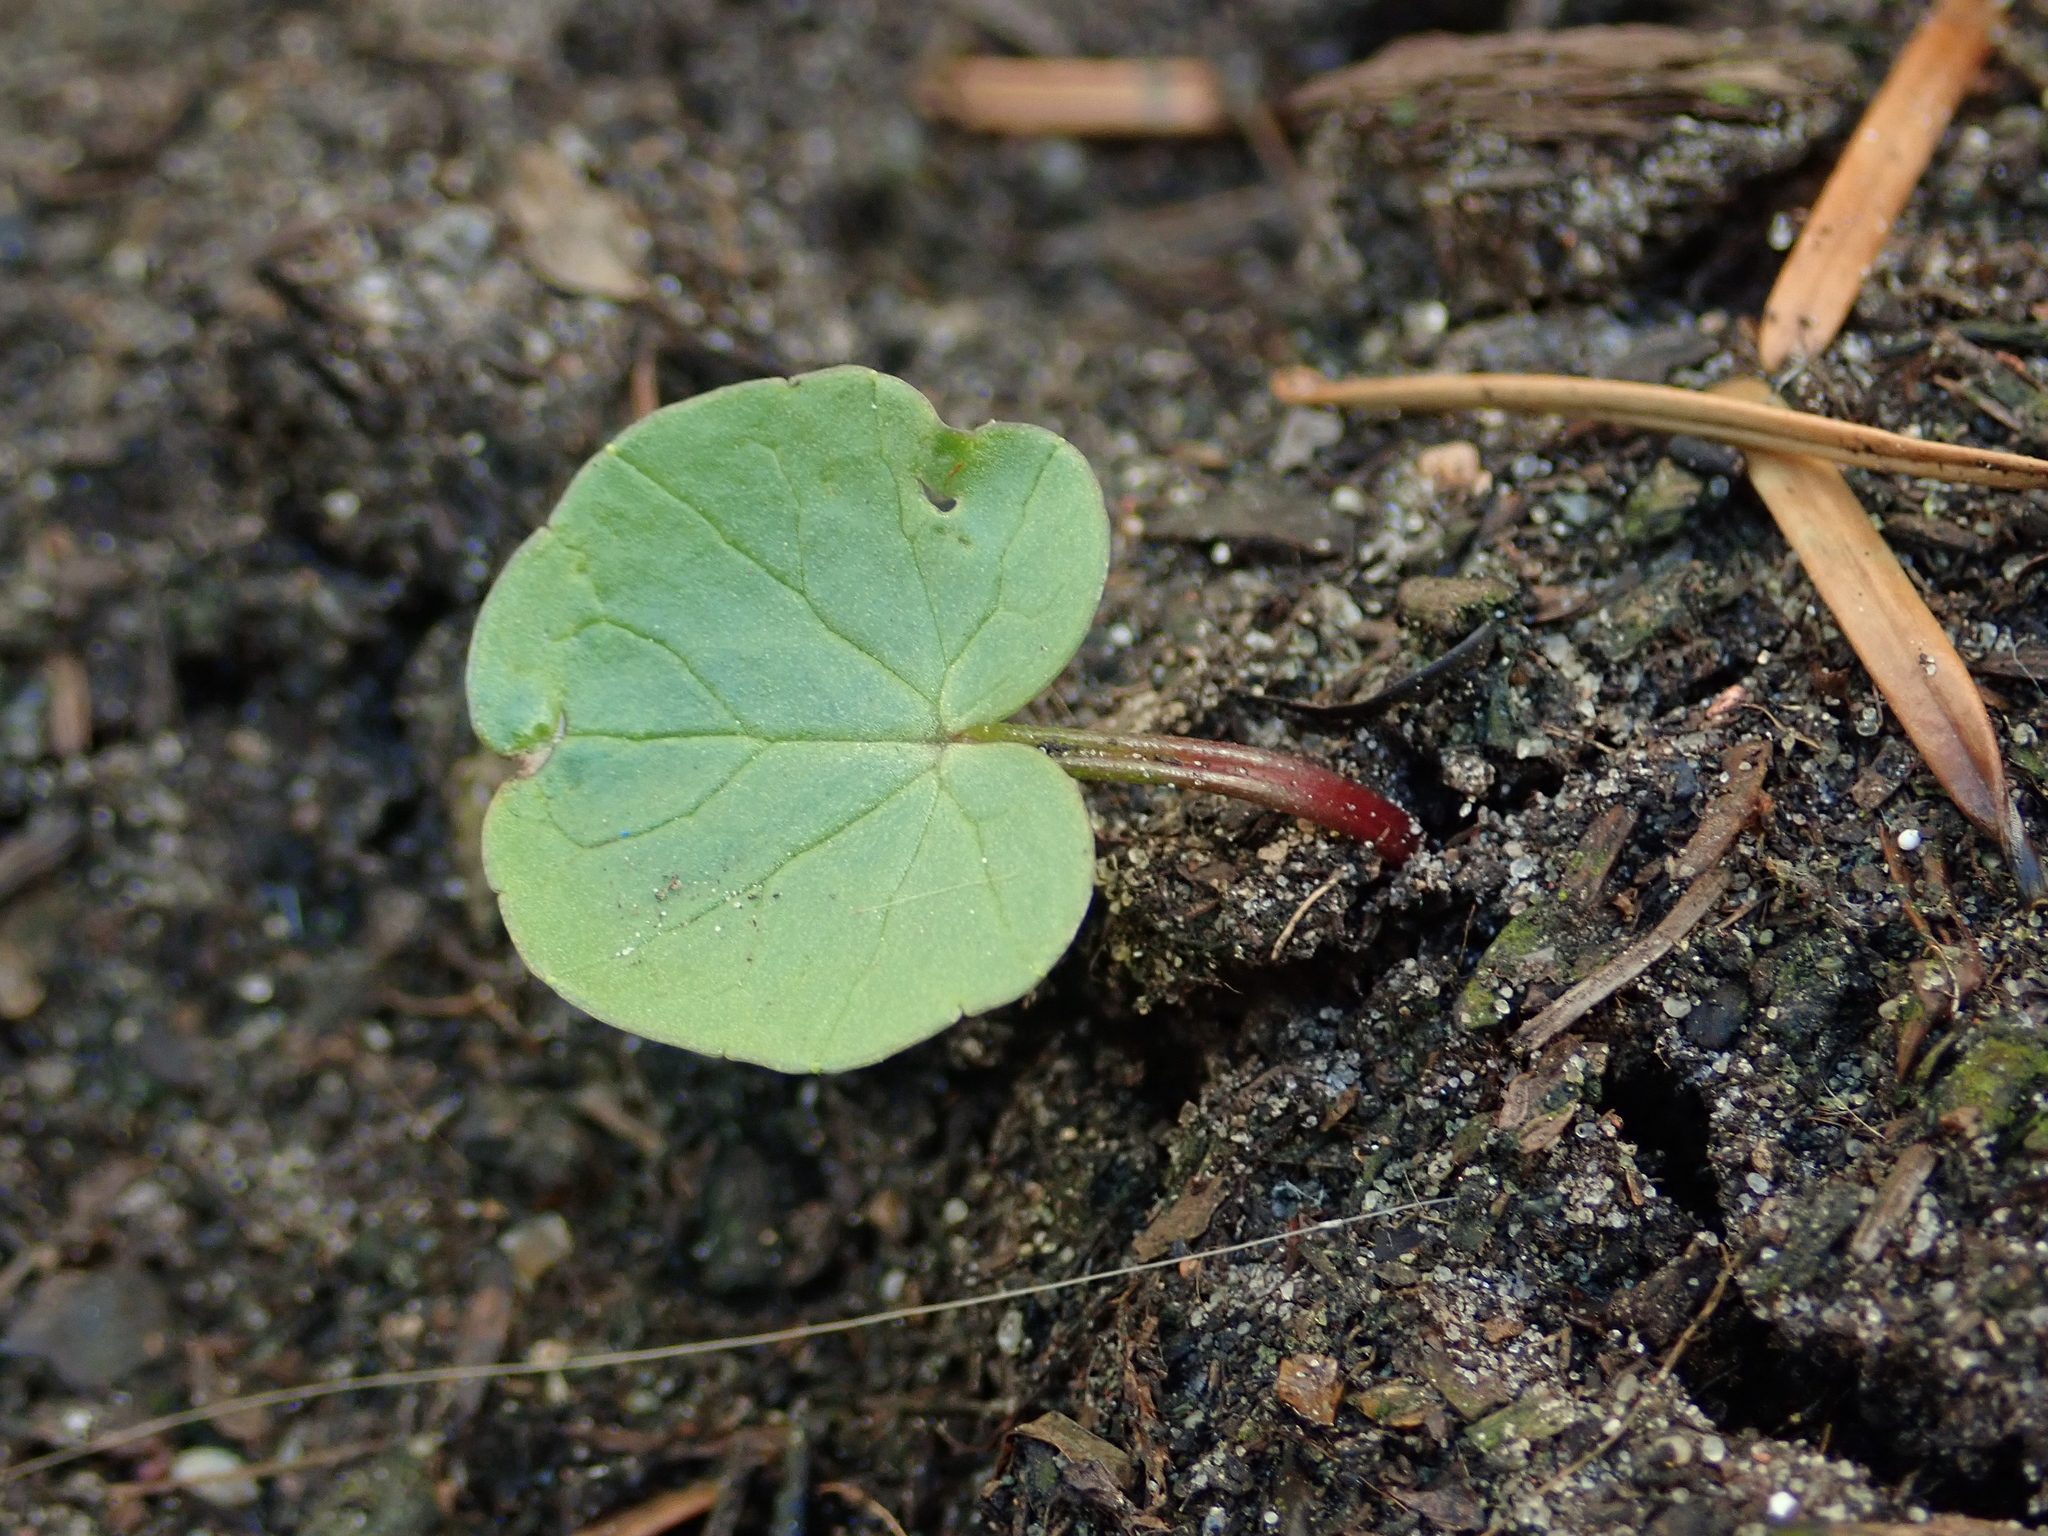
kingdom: Plantae
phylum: Tracheophyta
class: Magnoliopsida
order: Ranunculales
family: Ranunculaceae
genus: Ficaria
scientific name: Ficaria verna
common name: Lesser celandine
